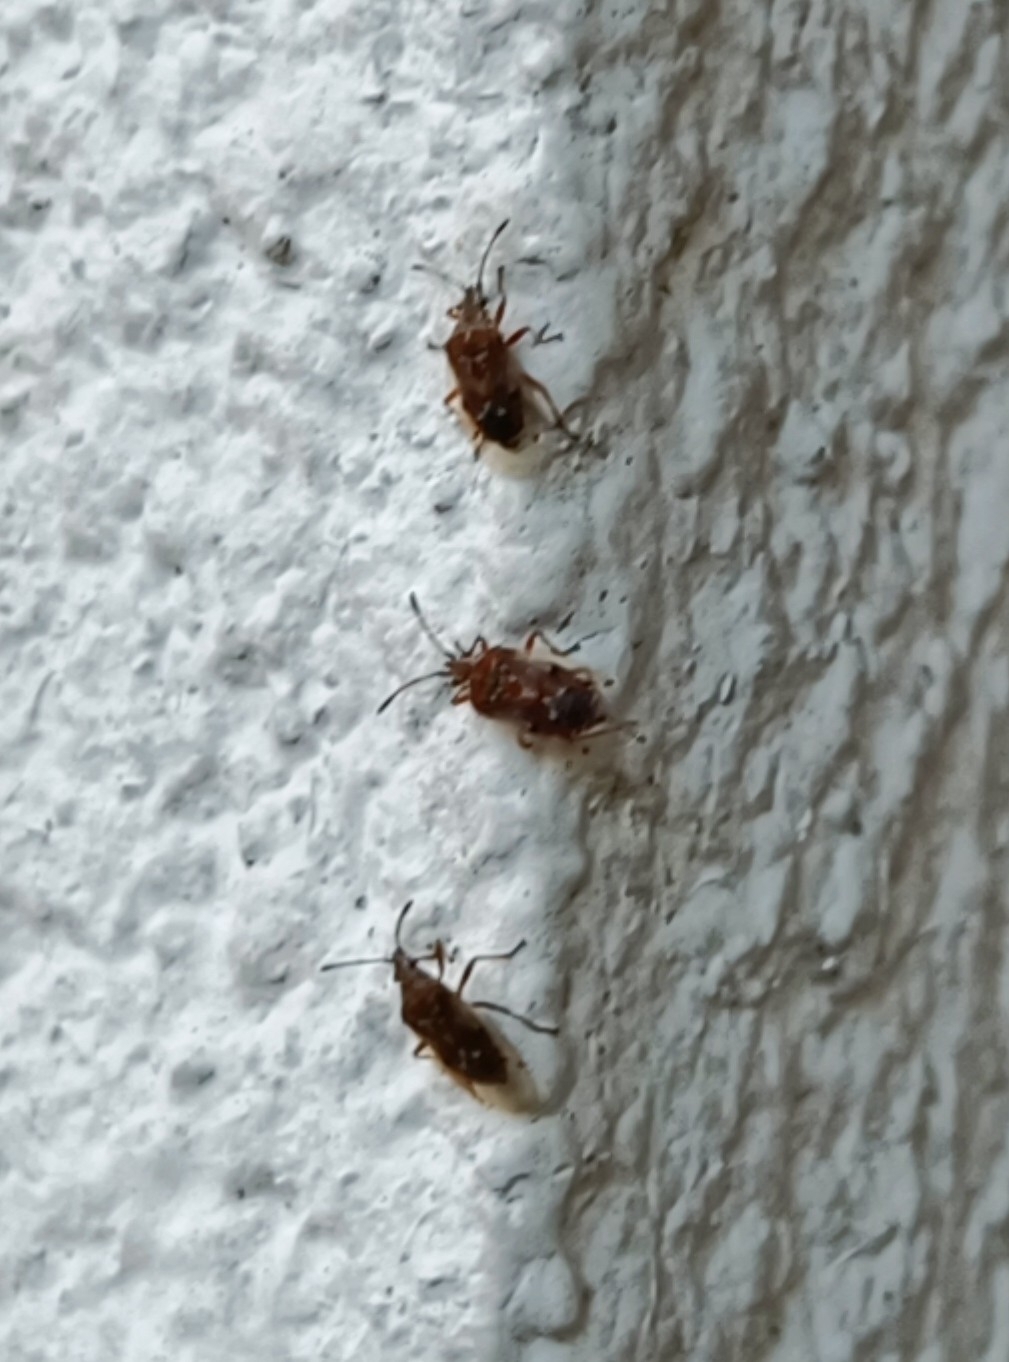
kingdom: Animalia
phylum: Arthropoda
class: Insecta
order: Hemiptera
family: Lygaeidae
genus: Kleidocerys
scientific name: Kleidocerys resedae
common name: Birch catkin bug
